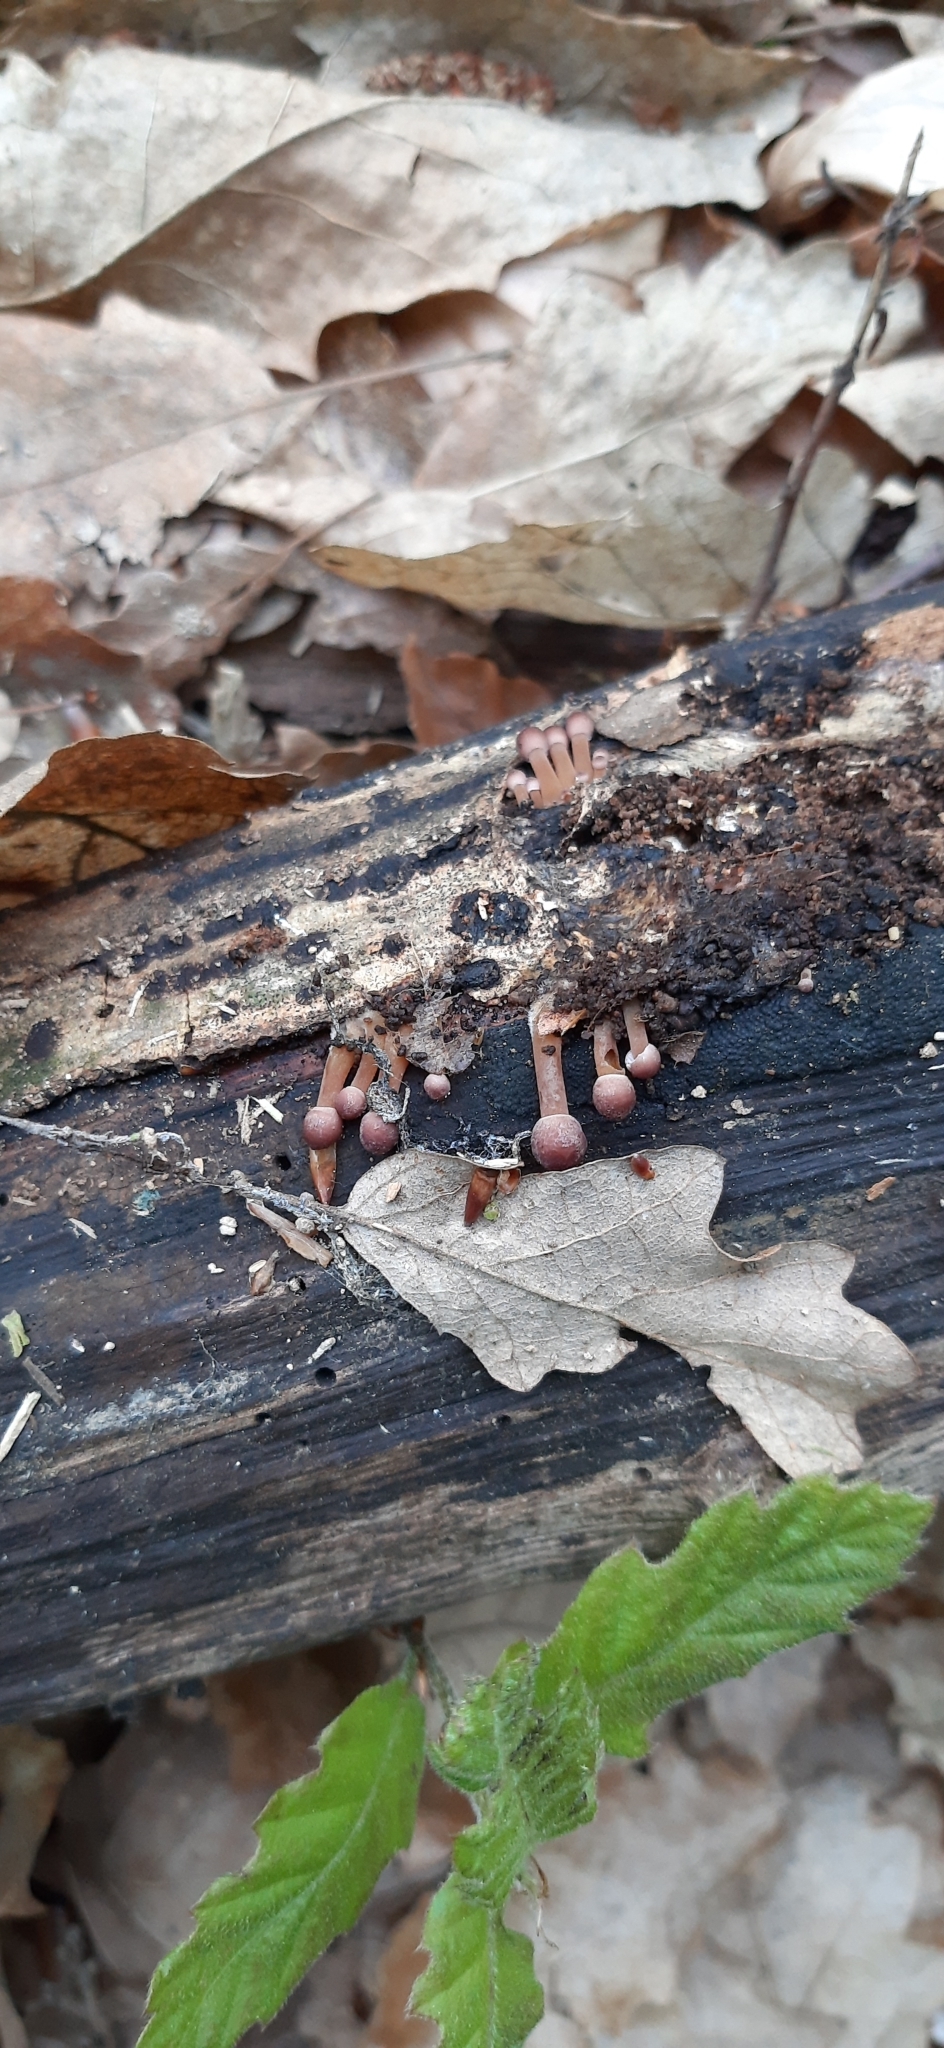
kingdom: Fungi
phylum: Basidiomycota
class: Agaricomycetes
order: Agaricales
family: Mycenaceae
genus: Mycena
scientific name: Mycena
